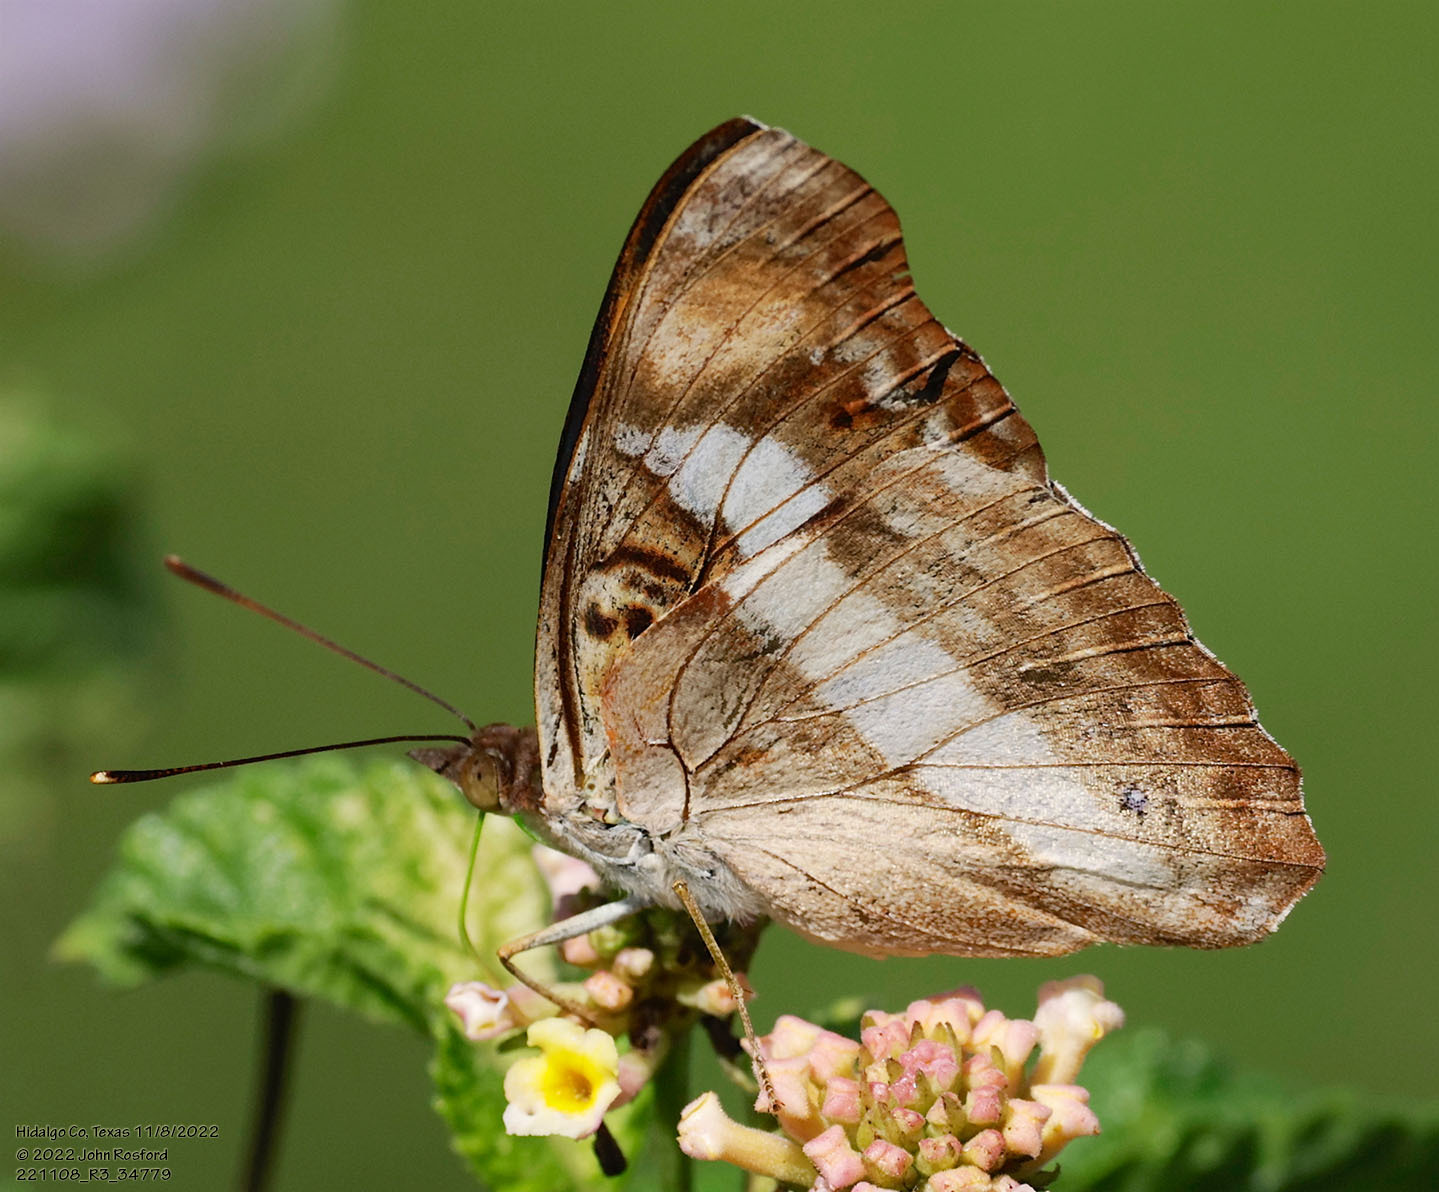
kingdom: Animalia
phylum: Arthropoda
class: Insecta
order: Lepidoptera
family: Nymphalidae
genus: Doxocopa
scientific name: Doxocopa pavon
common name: Pavon emperor
